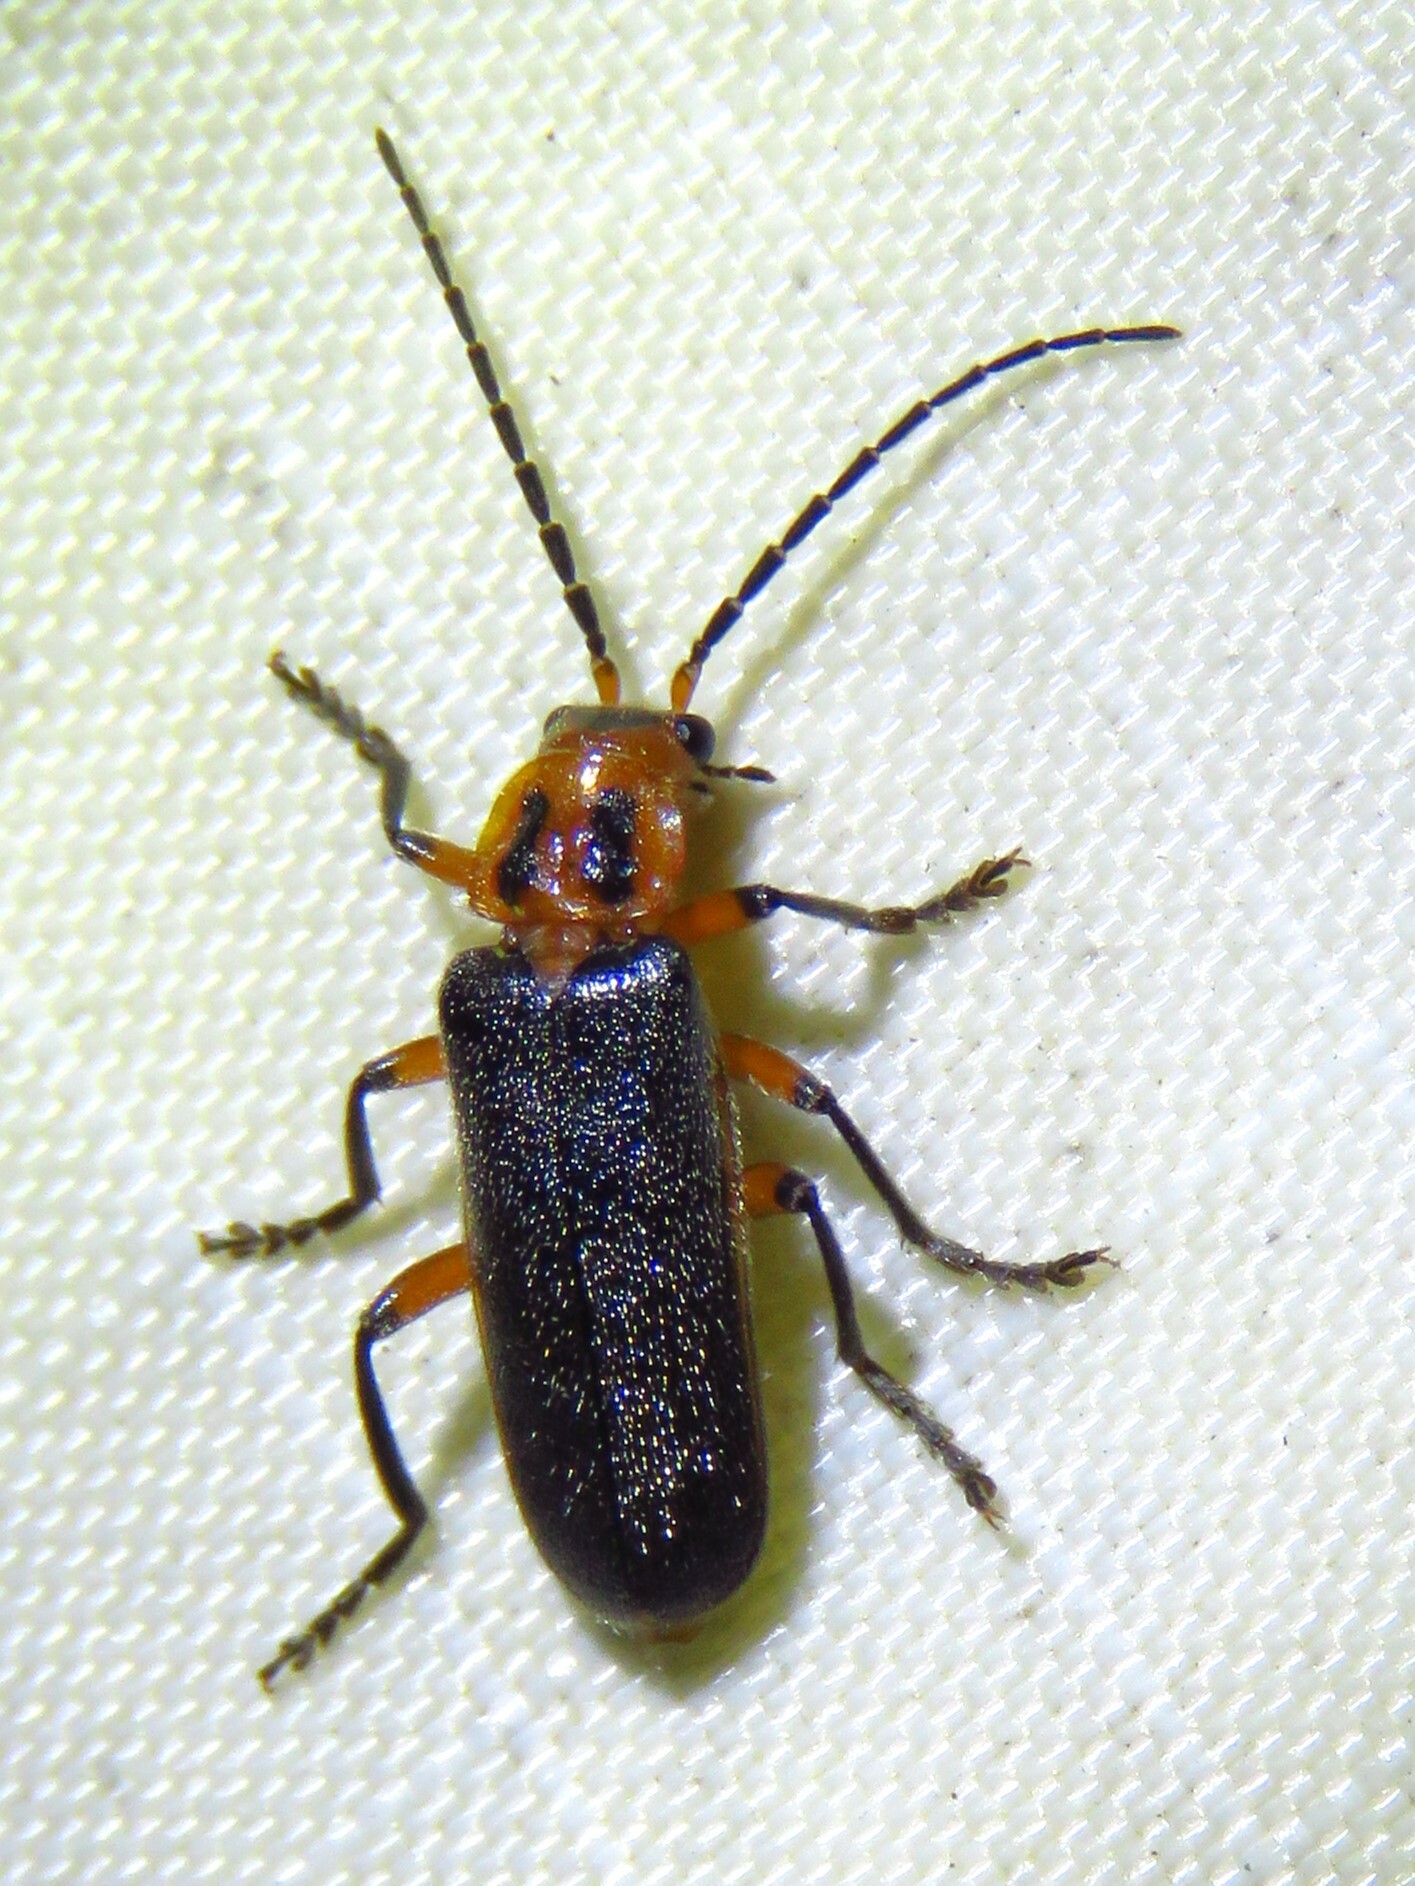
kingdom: Animalia
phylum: Arthropoda
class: Insecta
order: Coleoptera
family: Cantharidae
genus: Atalantycha
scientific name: Atalantycha bilineata
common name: Two-lined leatherwing
